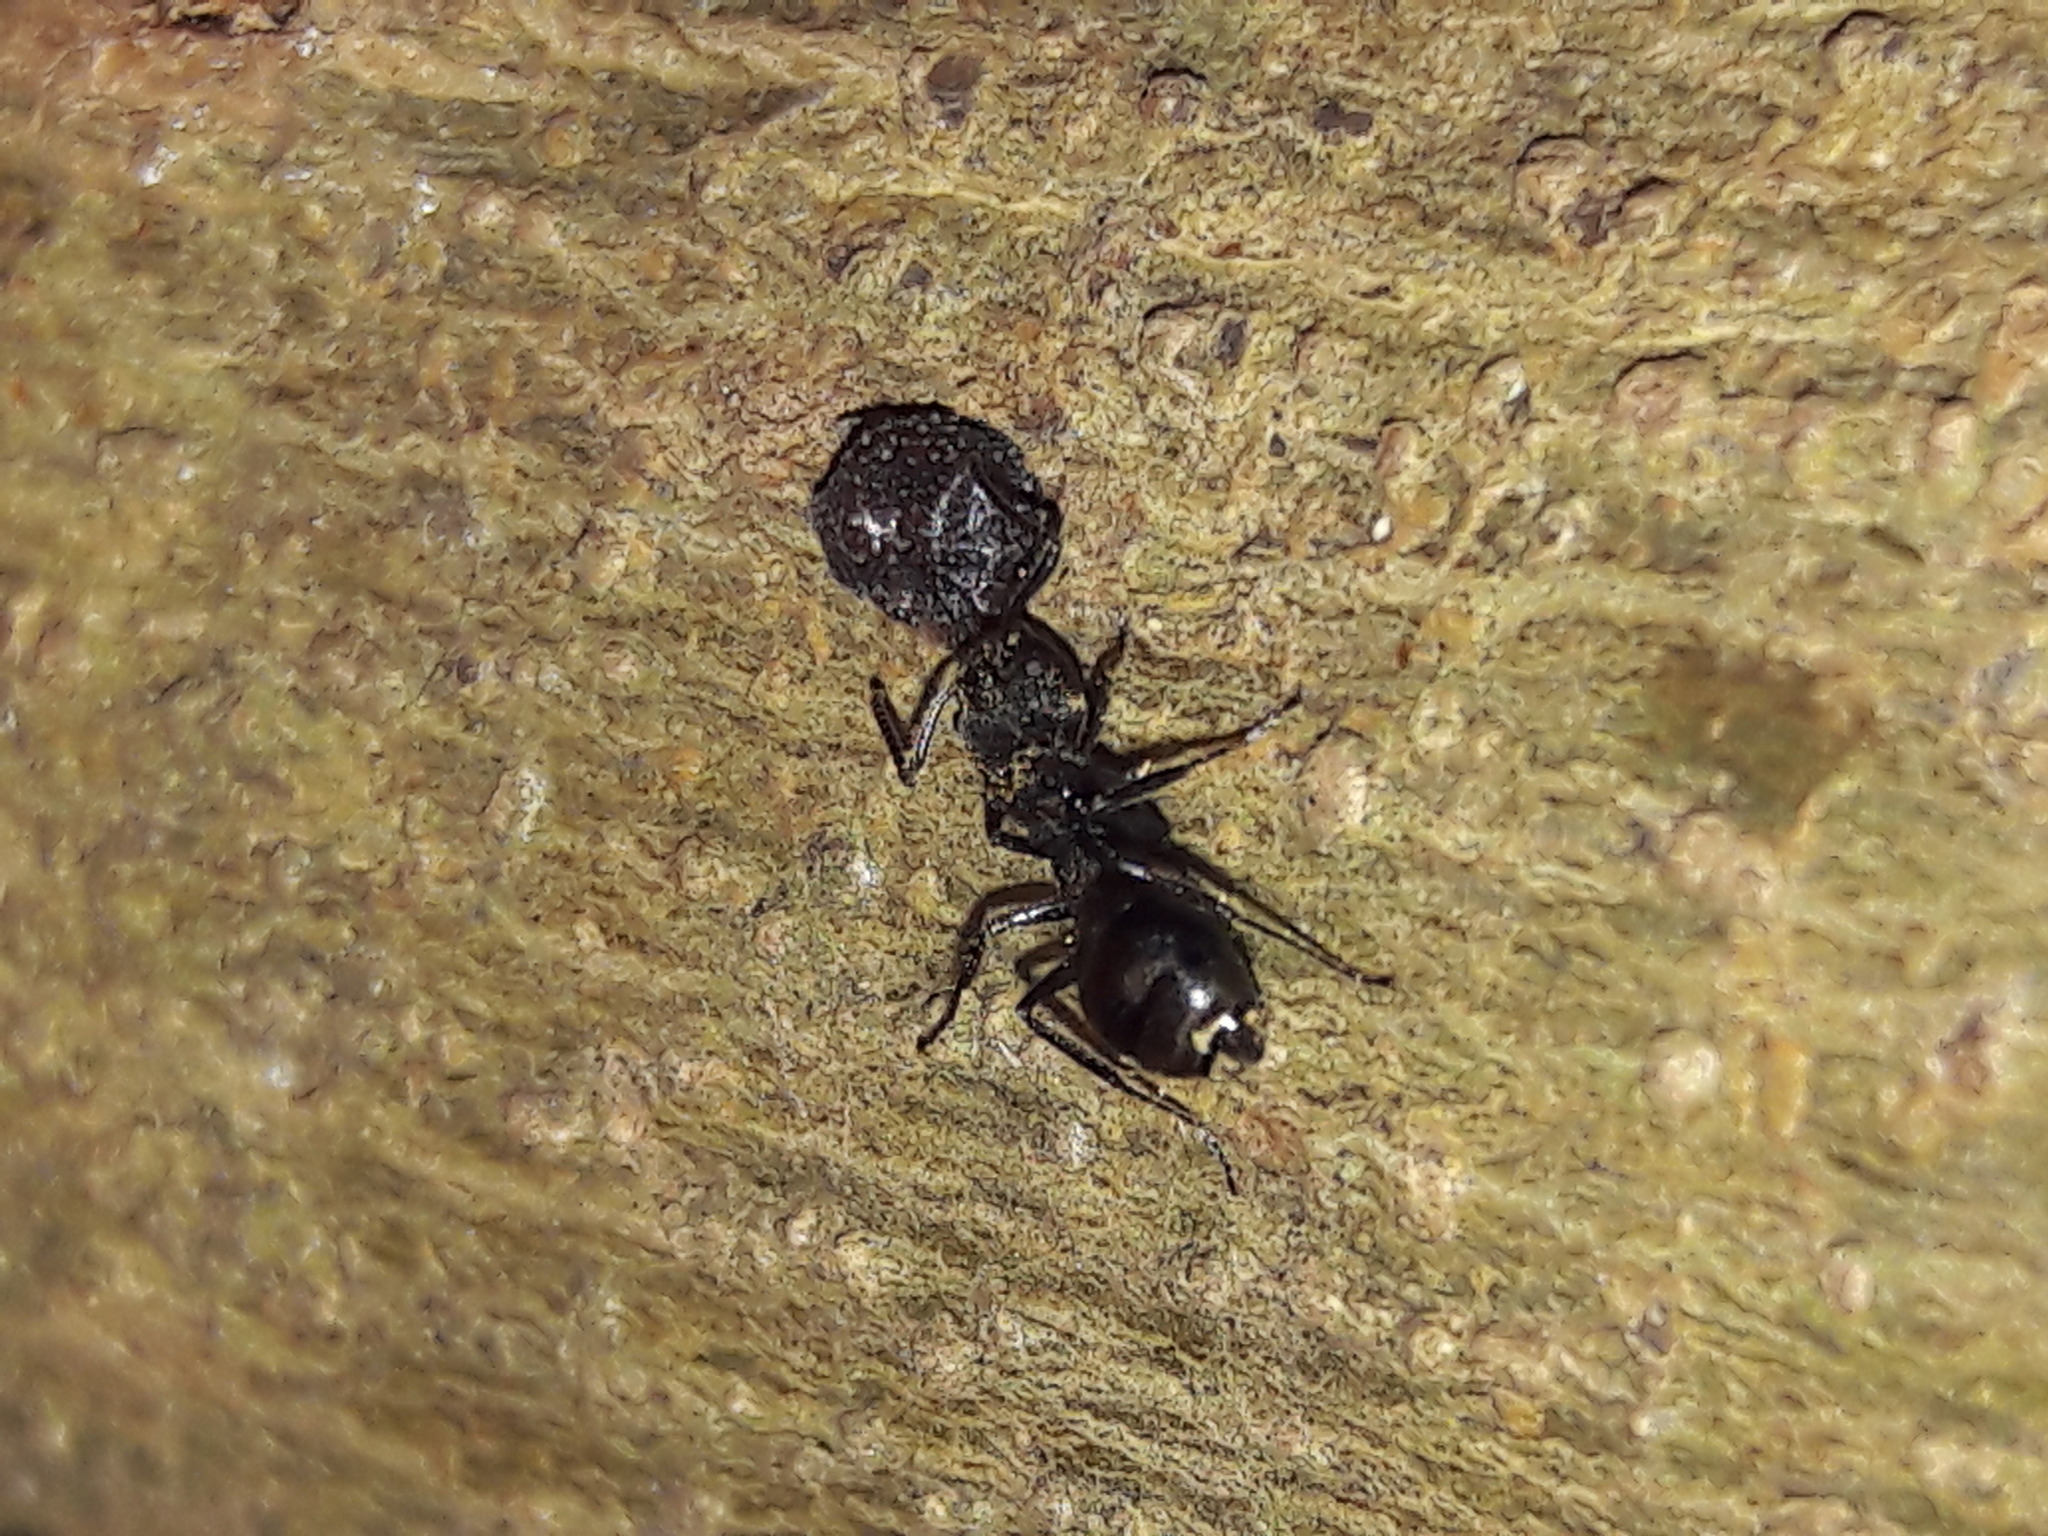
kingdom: Animalia
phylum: Arthropoda
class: Insecta
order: Hymenoptera
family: Formicidae
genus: Dolichoderus
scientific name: Dolichoderus bispinosus
